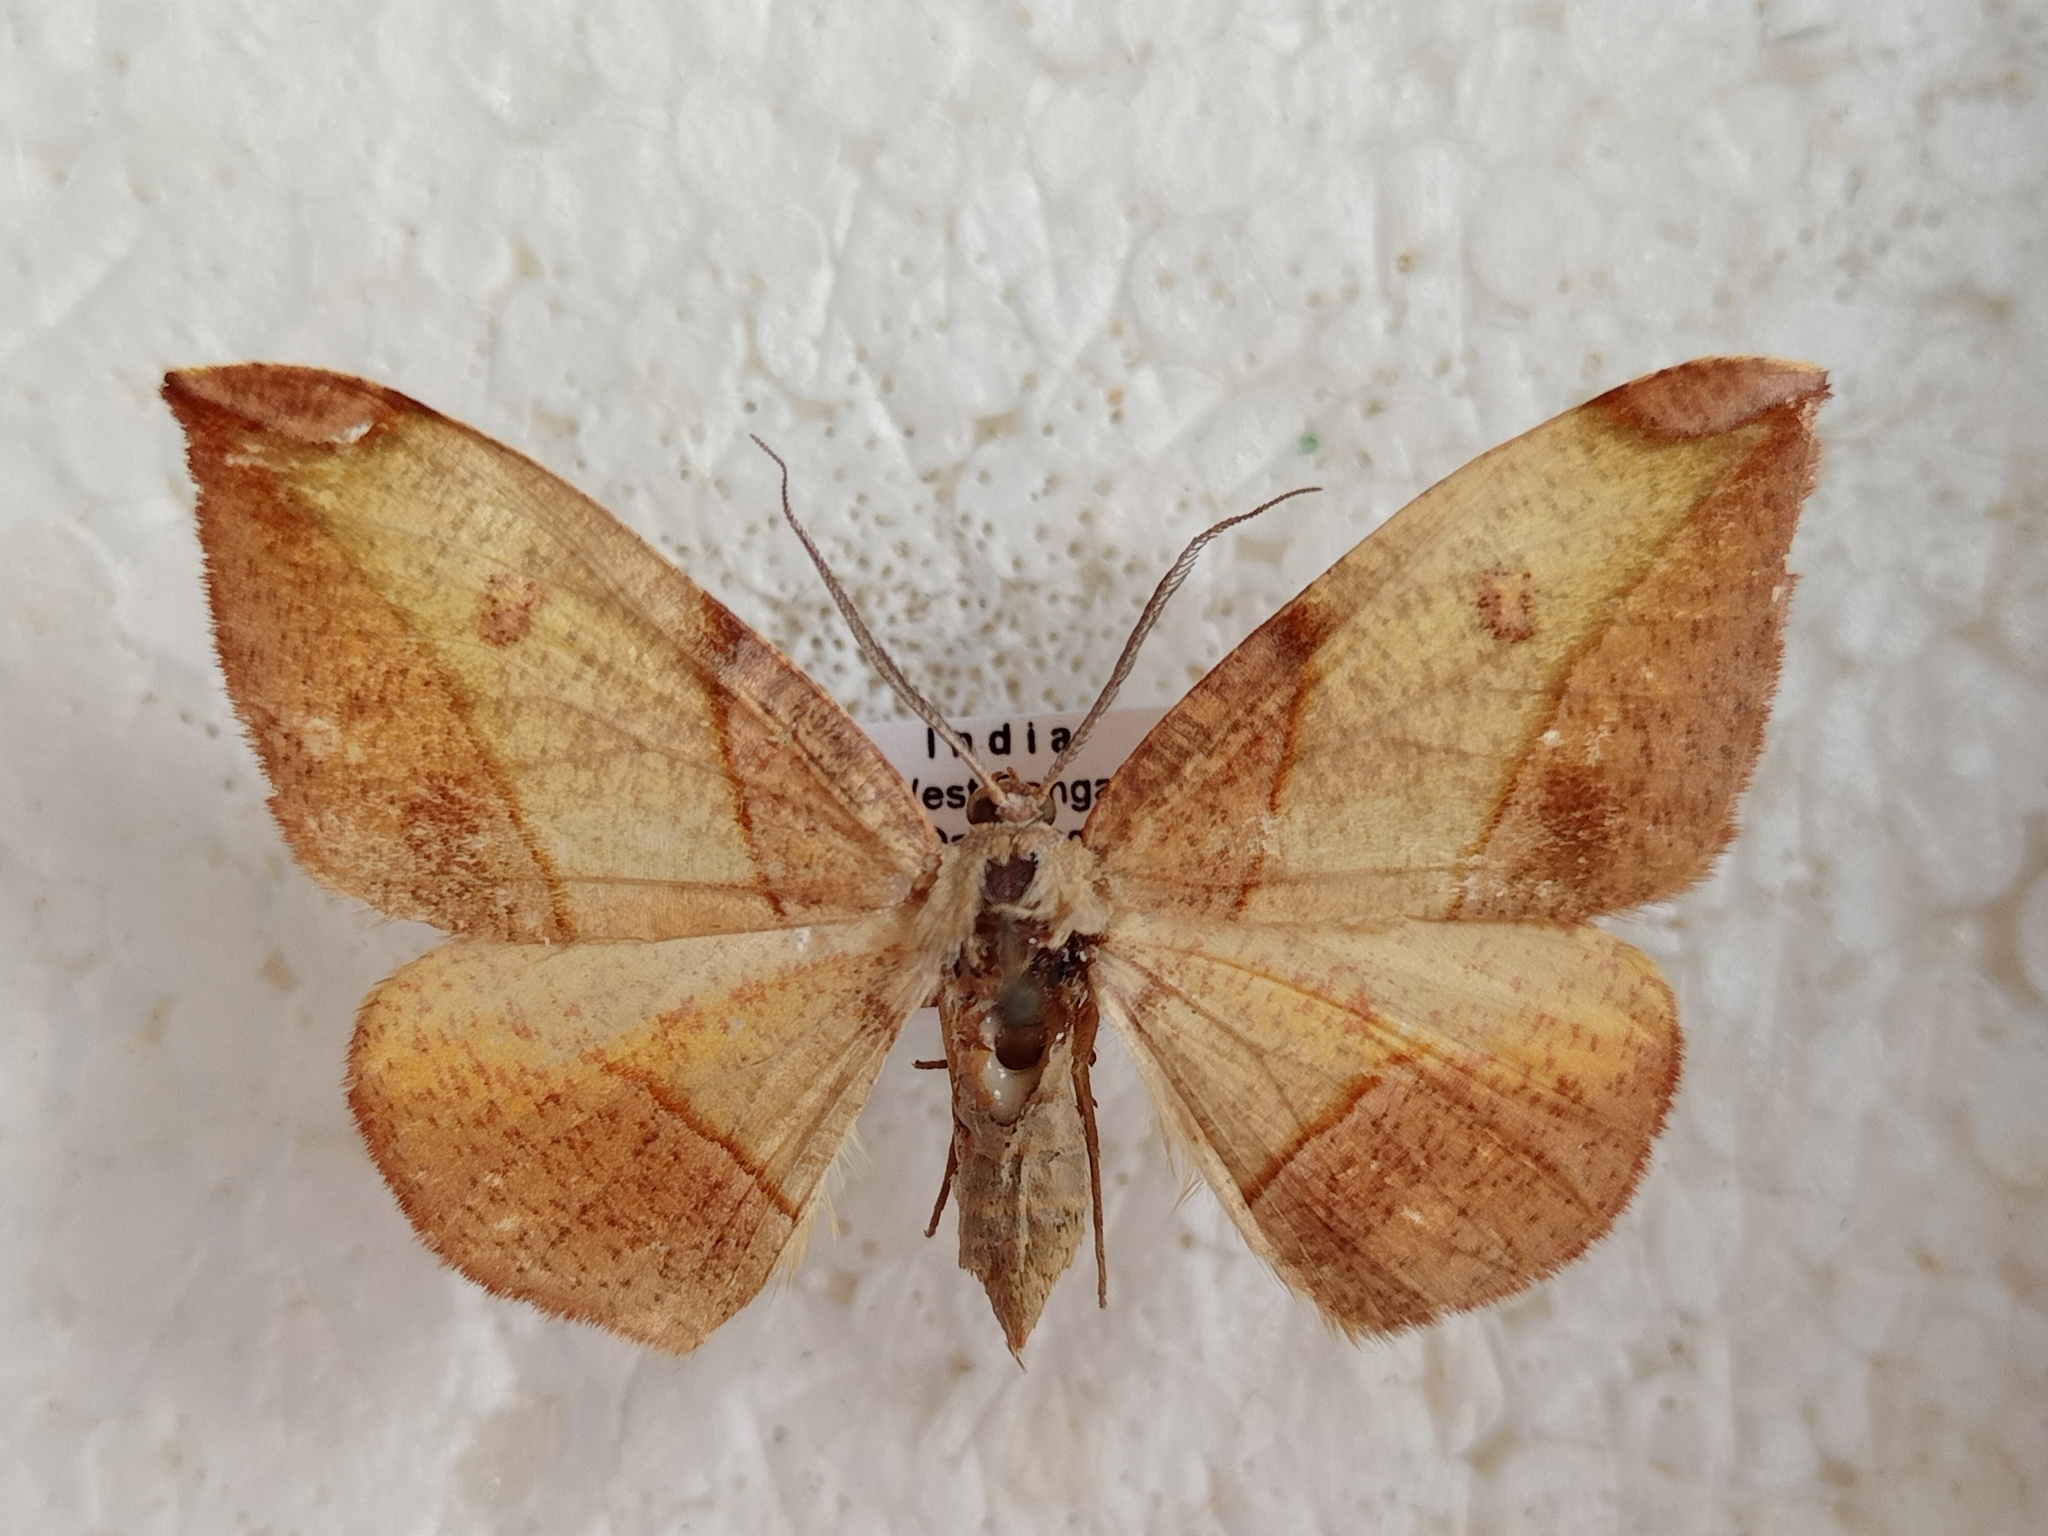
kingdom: Animalia
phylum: Arthropoda
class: Insecta
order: Lepidoptera
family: Geometridae
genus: Hypochrosis
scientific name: Hypochrosis hyadaria
